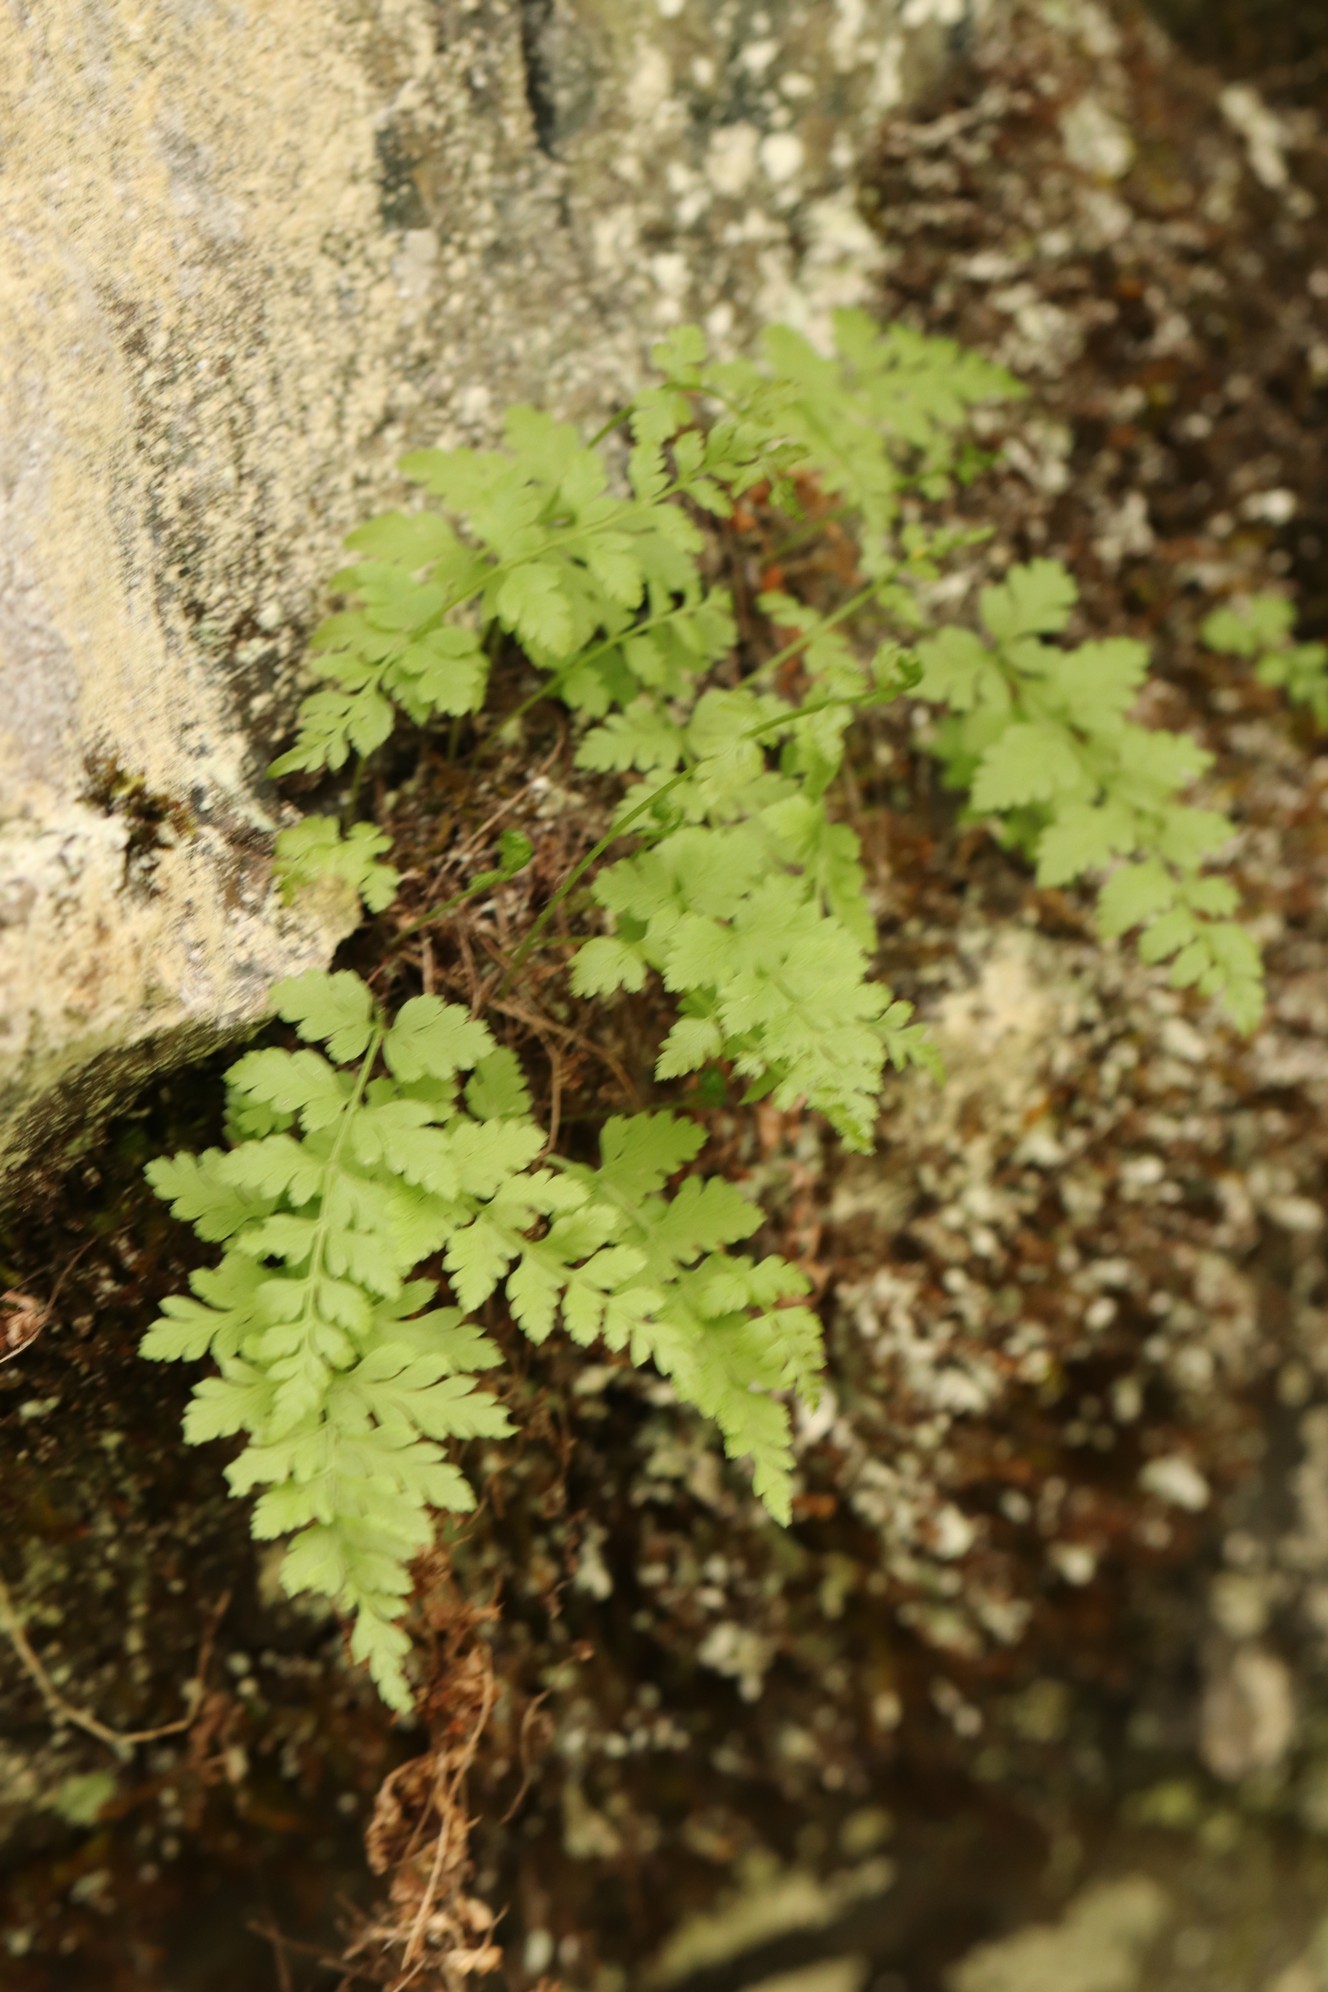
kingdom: Plantae
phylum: Tracheophyta
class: Polypodiopsida
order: Polypodiales
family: Cystopteridaceae
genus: Cystopteris
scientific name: Cystopteris fragilis
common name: Brittle bladder fern
